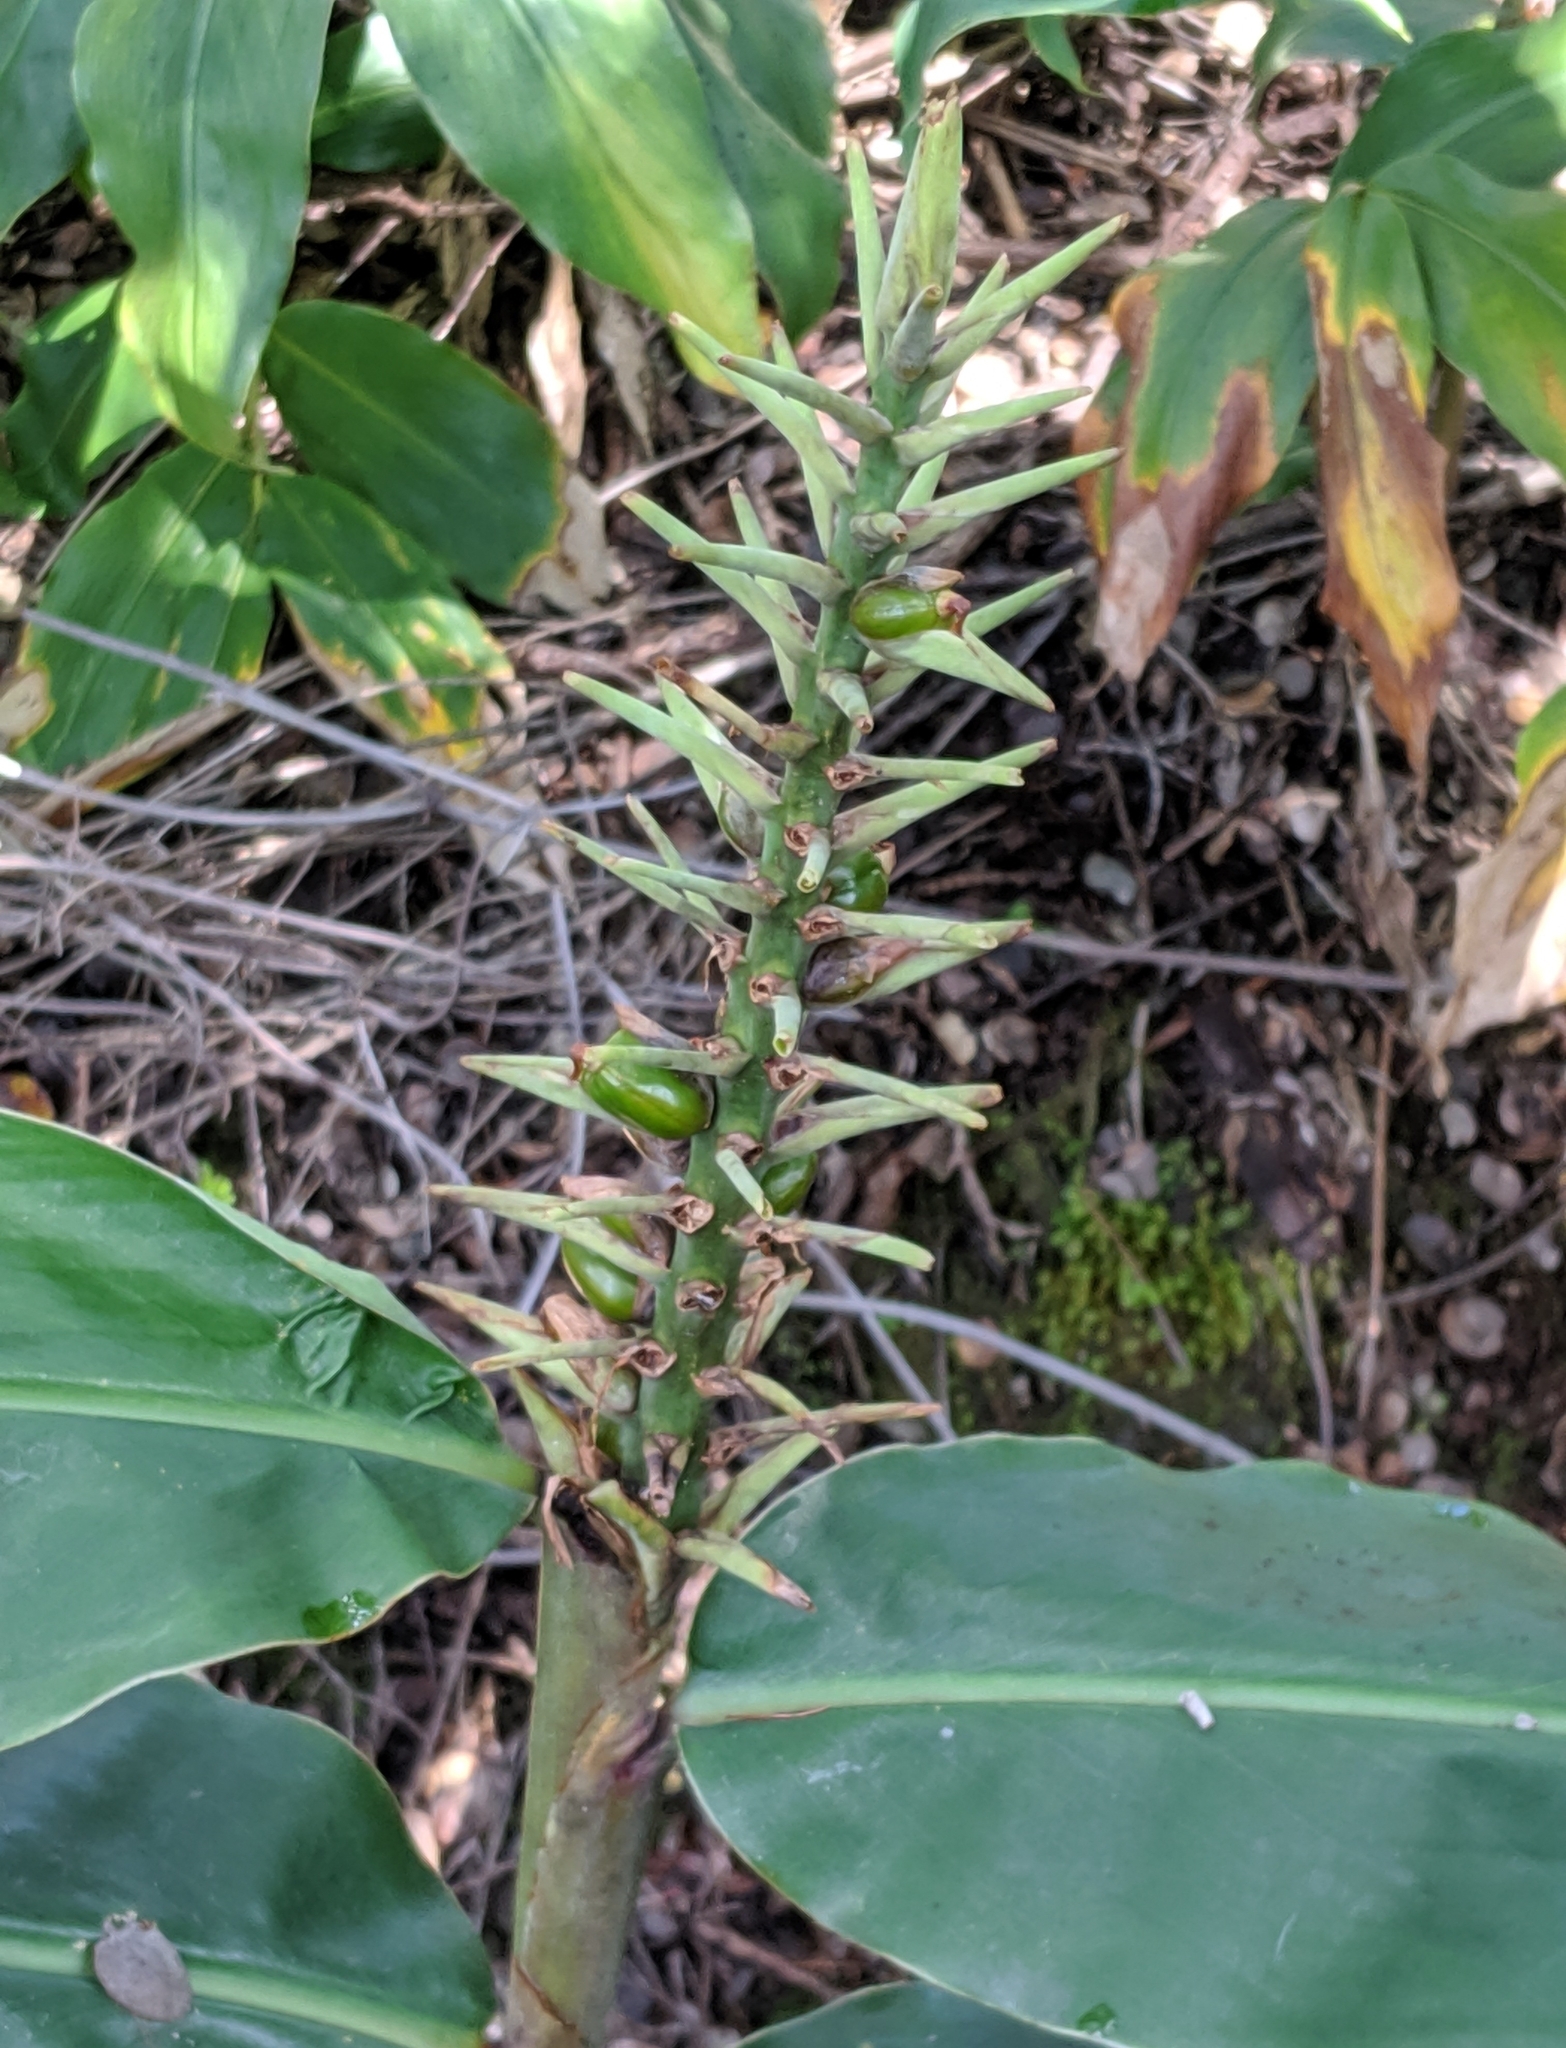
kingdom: Plantae
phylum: Tracheophyta
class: Liliopsida
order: Zingiberales
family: Zingiberaceae
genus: Hedychium
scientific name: Hedychium gardnerianum
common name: Himalayan ginger
